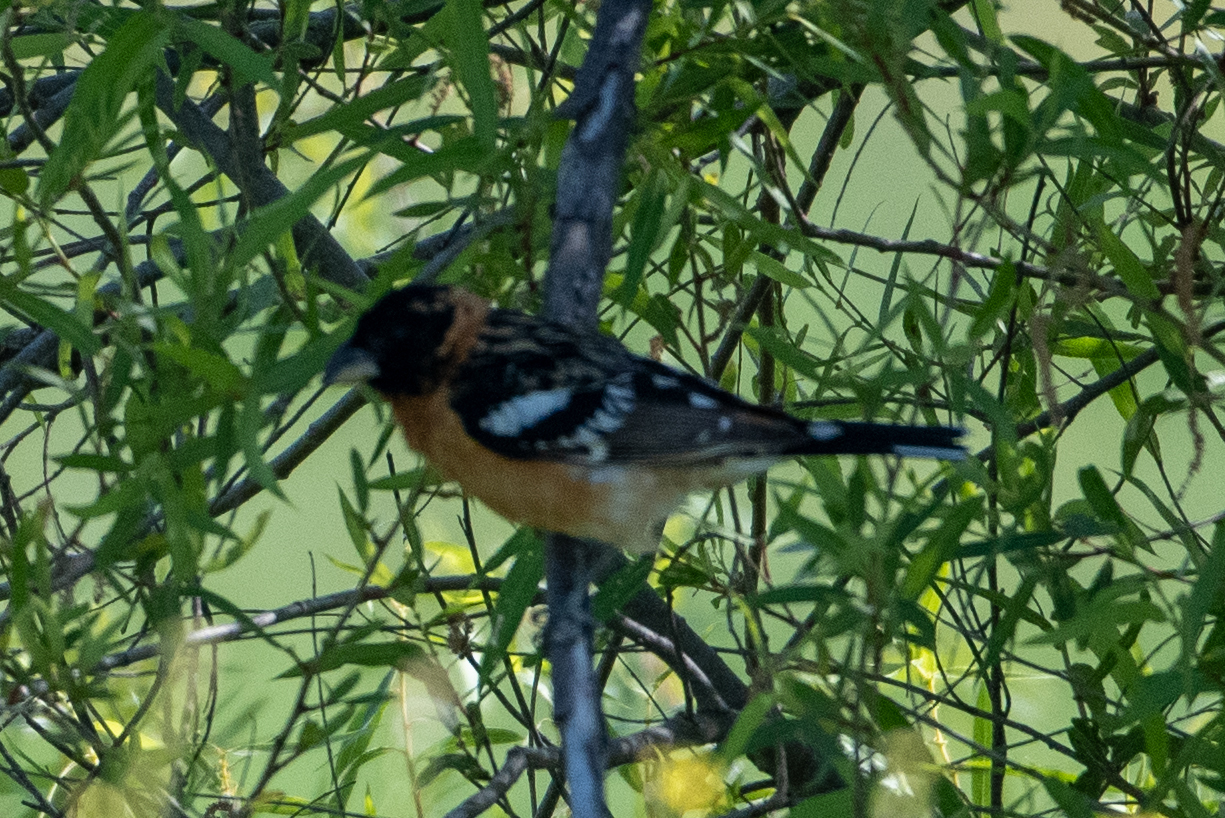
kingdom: Animalia
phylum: Chordata
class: Aves
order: Passeriformes
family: Cardinalidae
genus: Pheucticus
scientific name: Pheucticus melanocephalus
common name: Black-headed grosbeak
